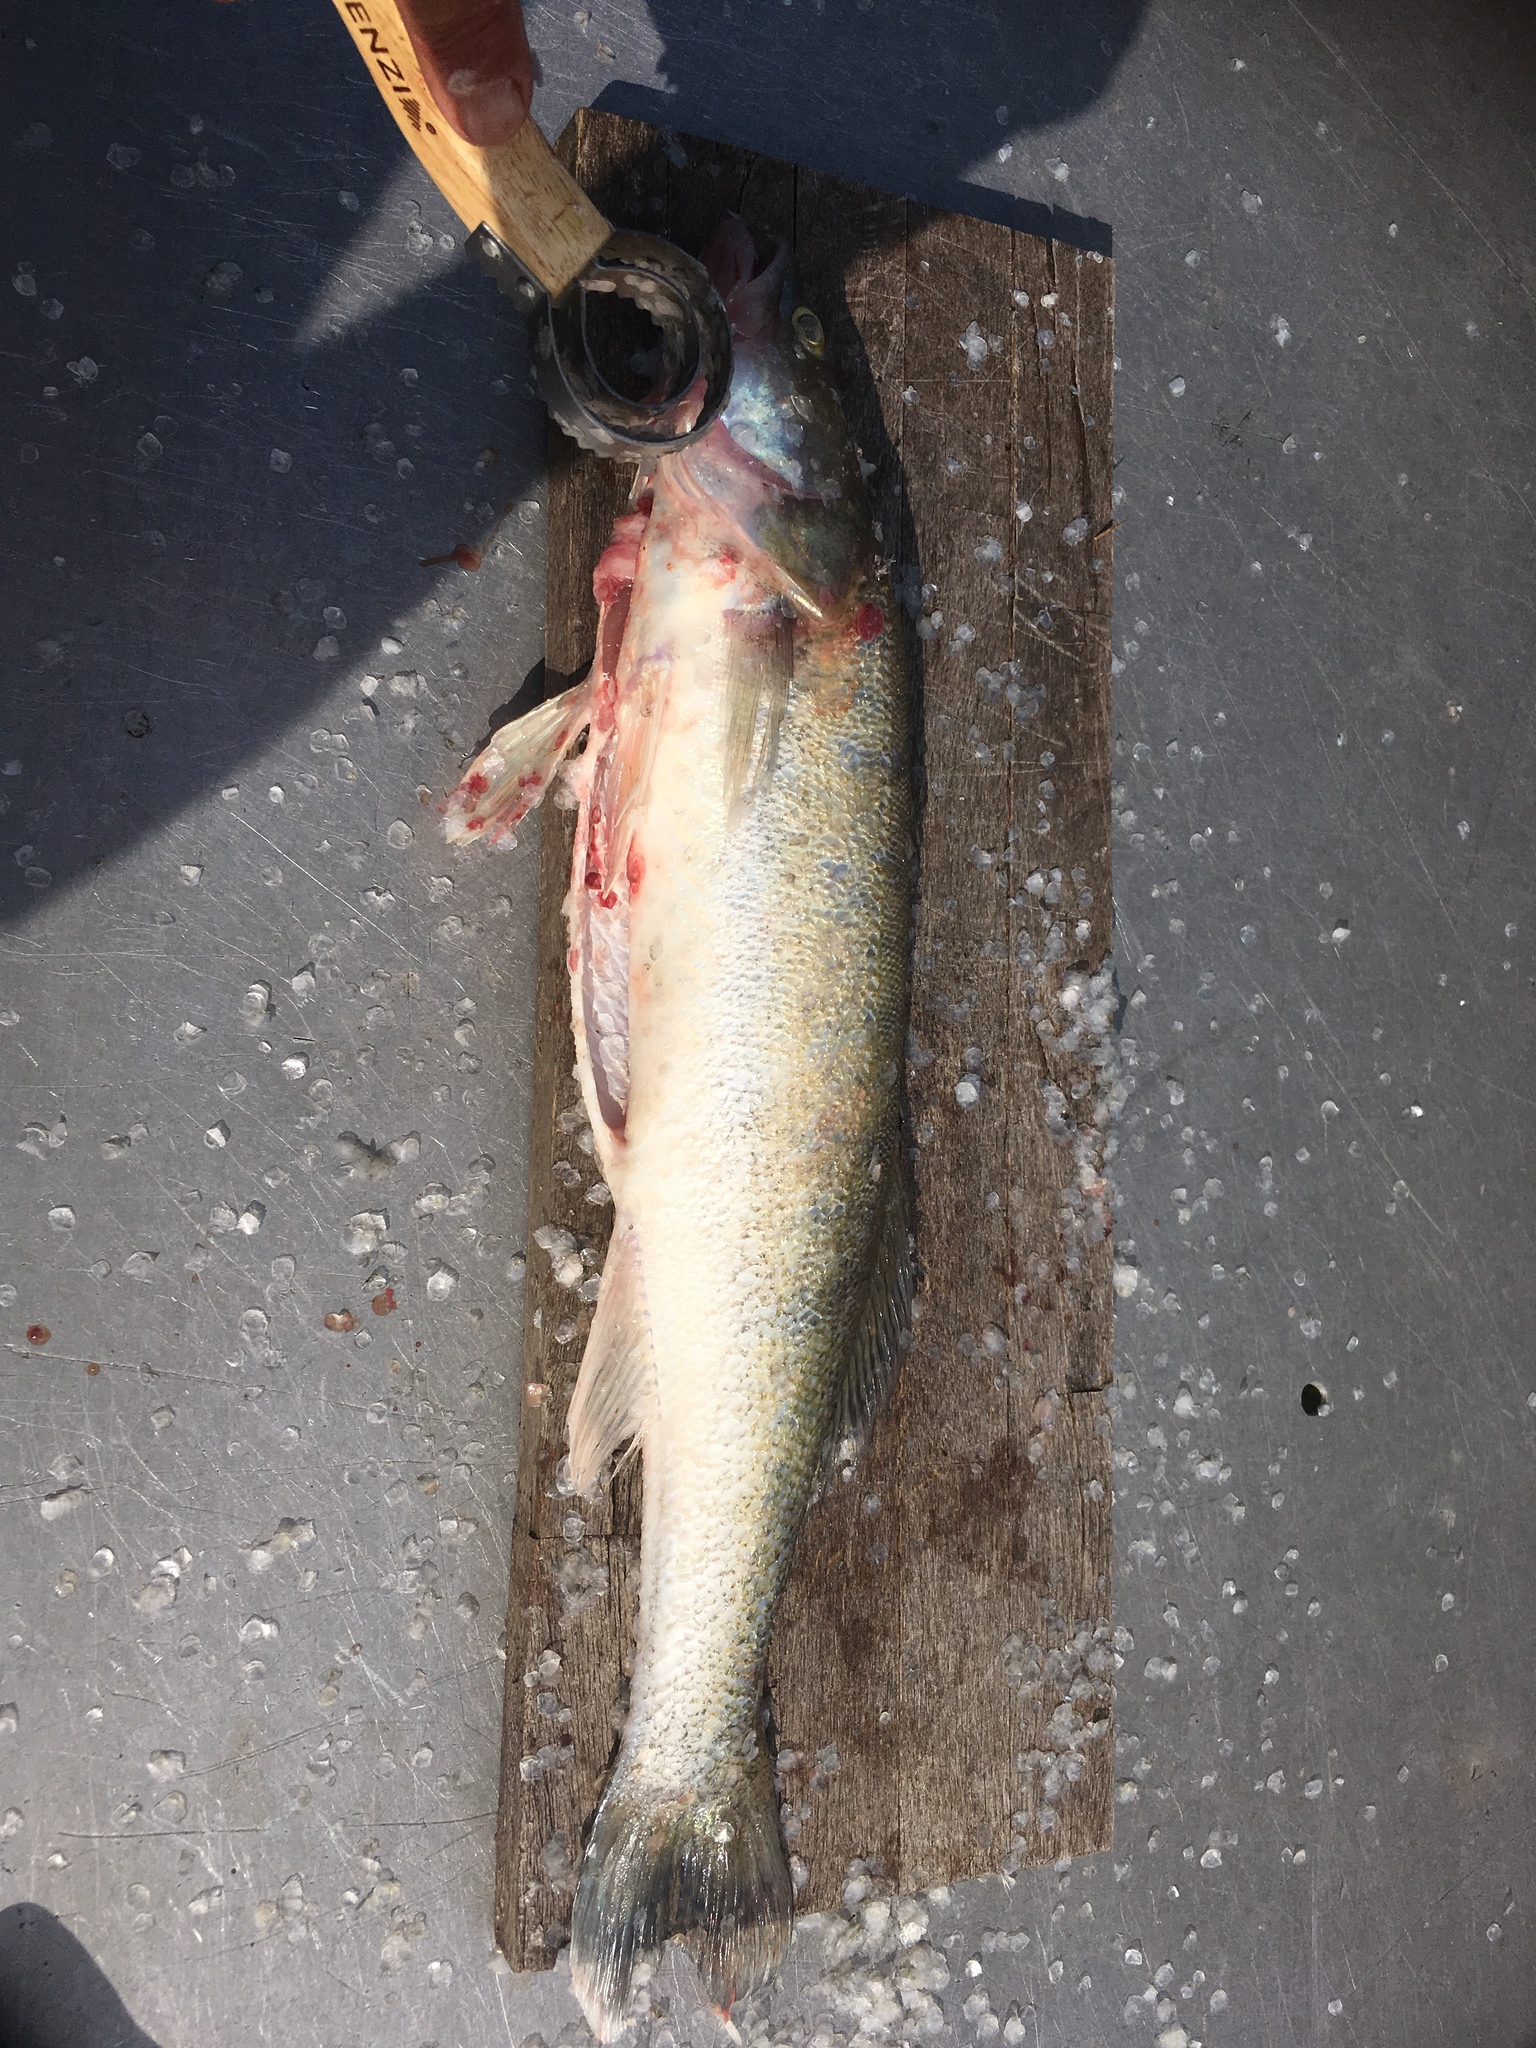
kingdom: Animalia
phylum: Chordata
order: Perciformes
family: Percidae
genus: Sander
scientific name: Sander lucioperca
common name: Pikeperch
